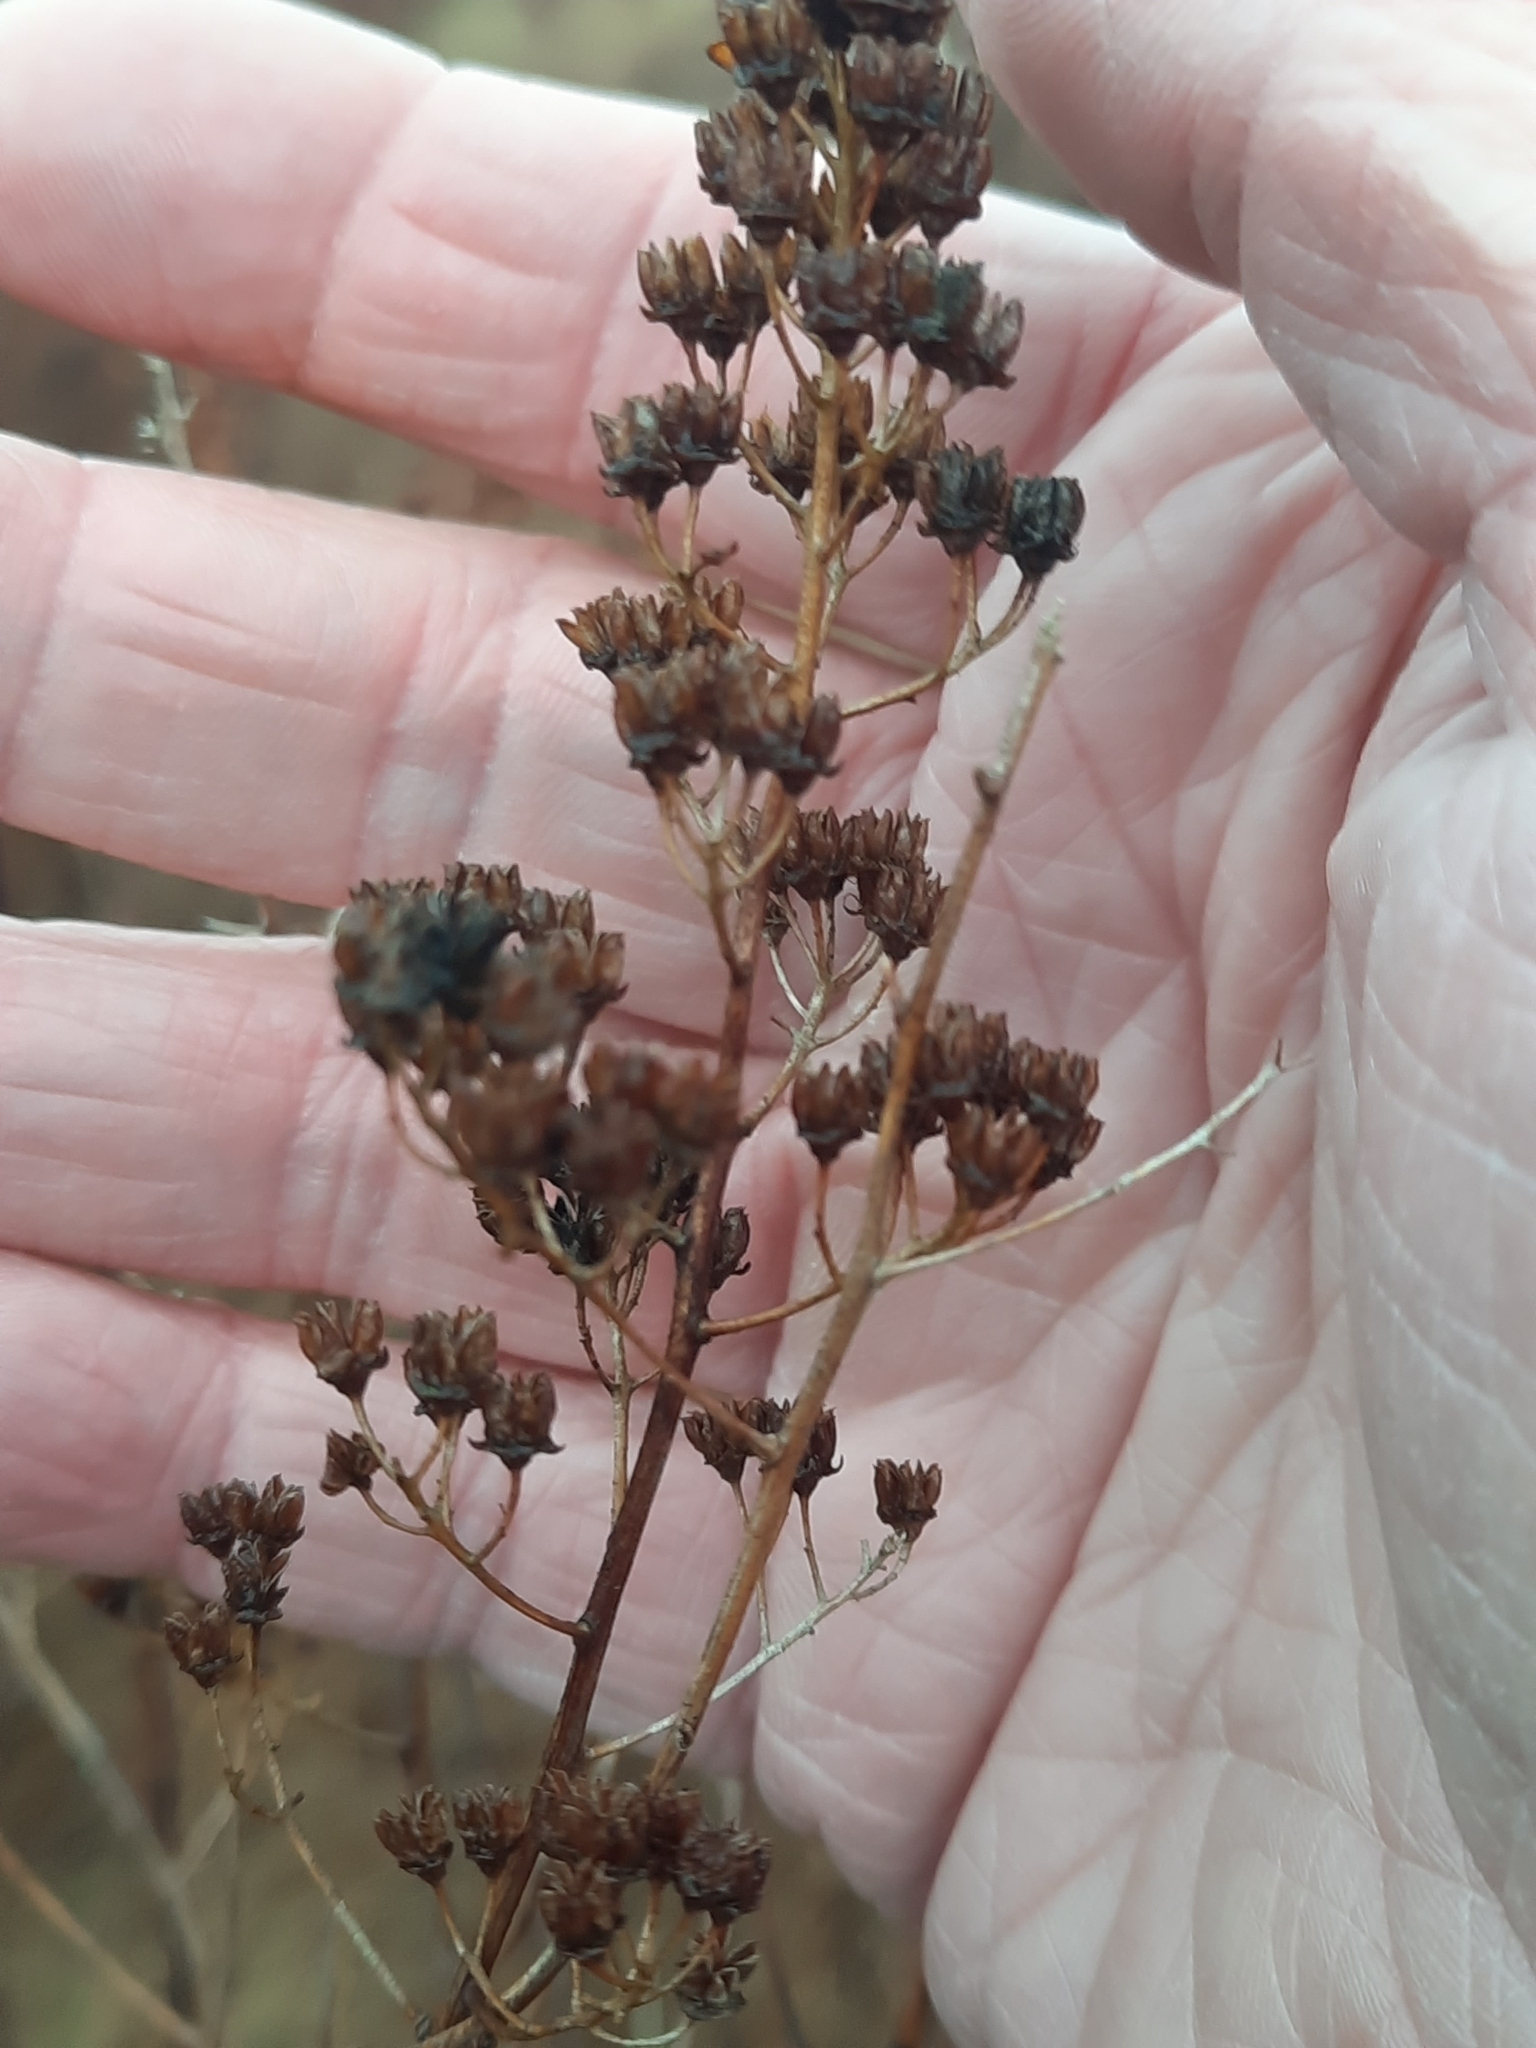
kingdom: Plantae
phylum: Tracheophyta
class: Magnoliopsida
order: Rosales
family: Rosaceae
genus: Spiraea
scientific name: Spiraea alba
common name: Pale bridewort
